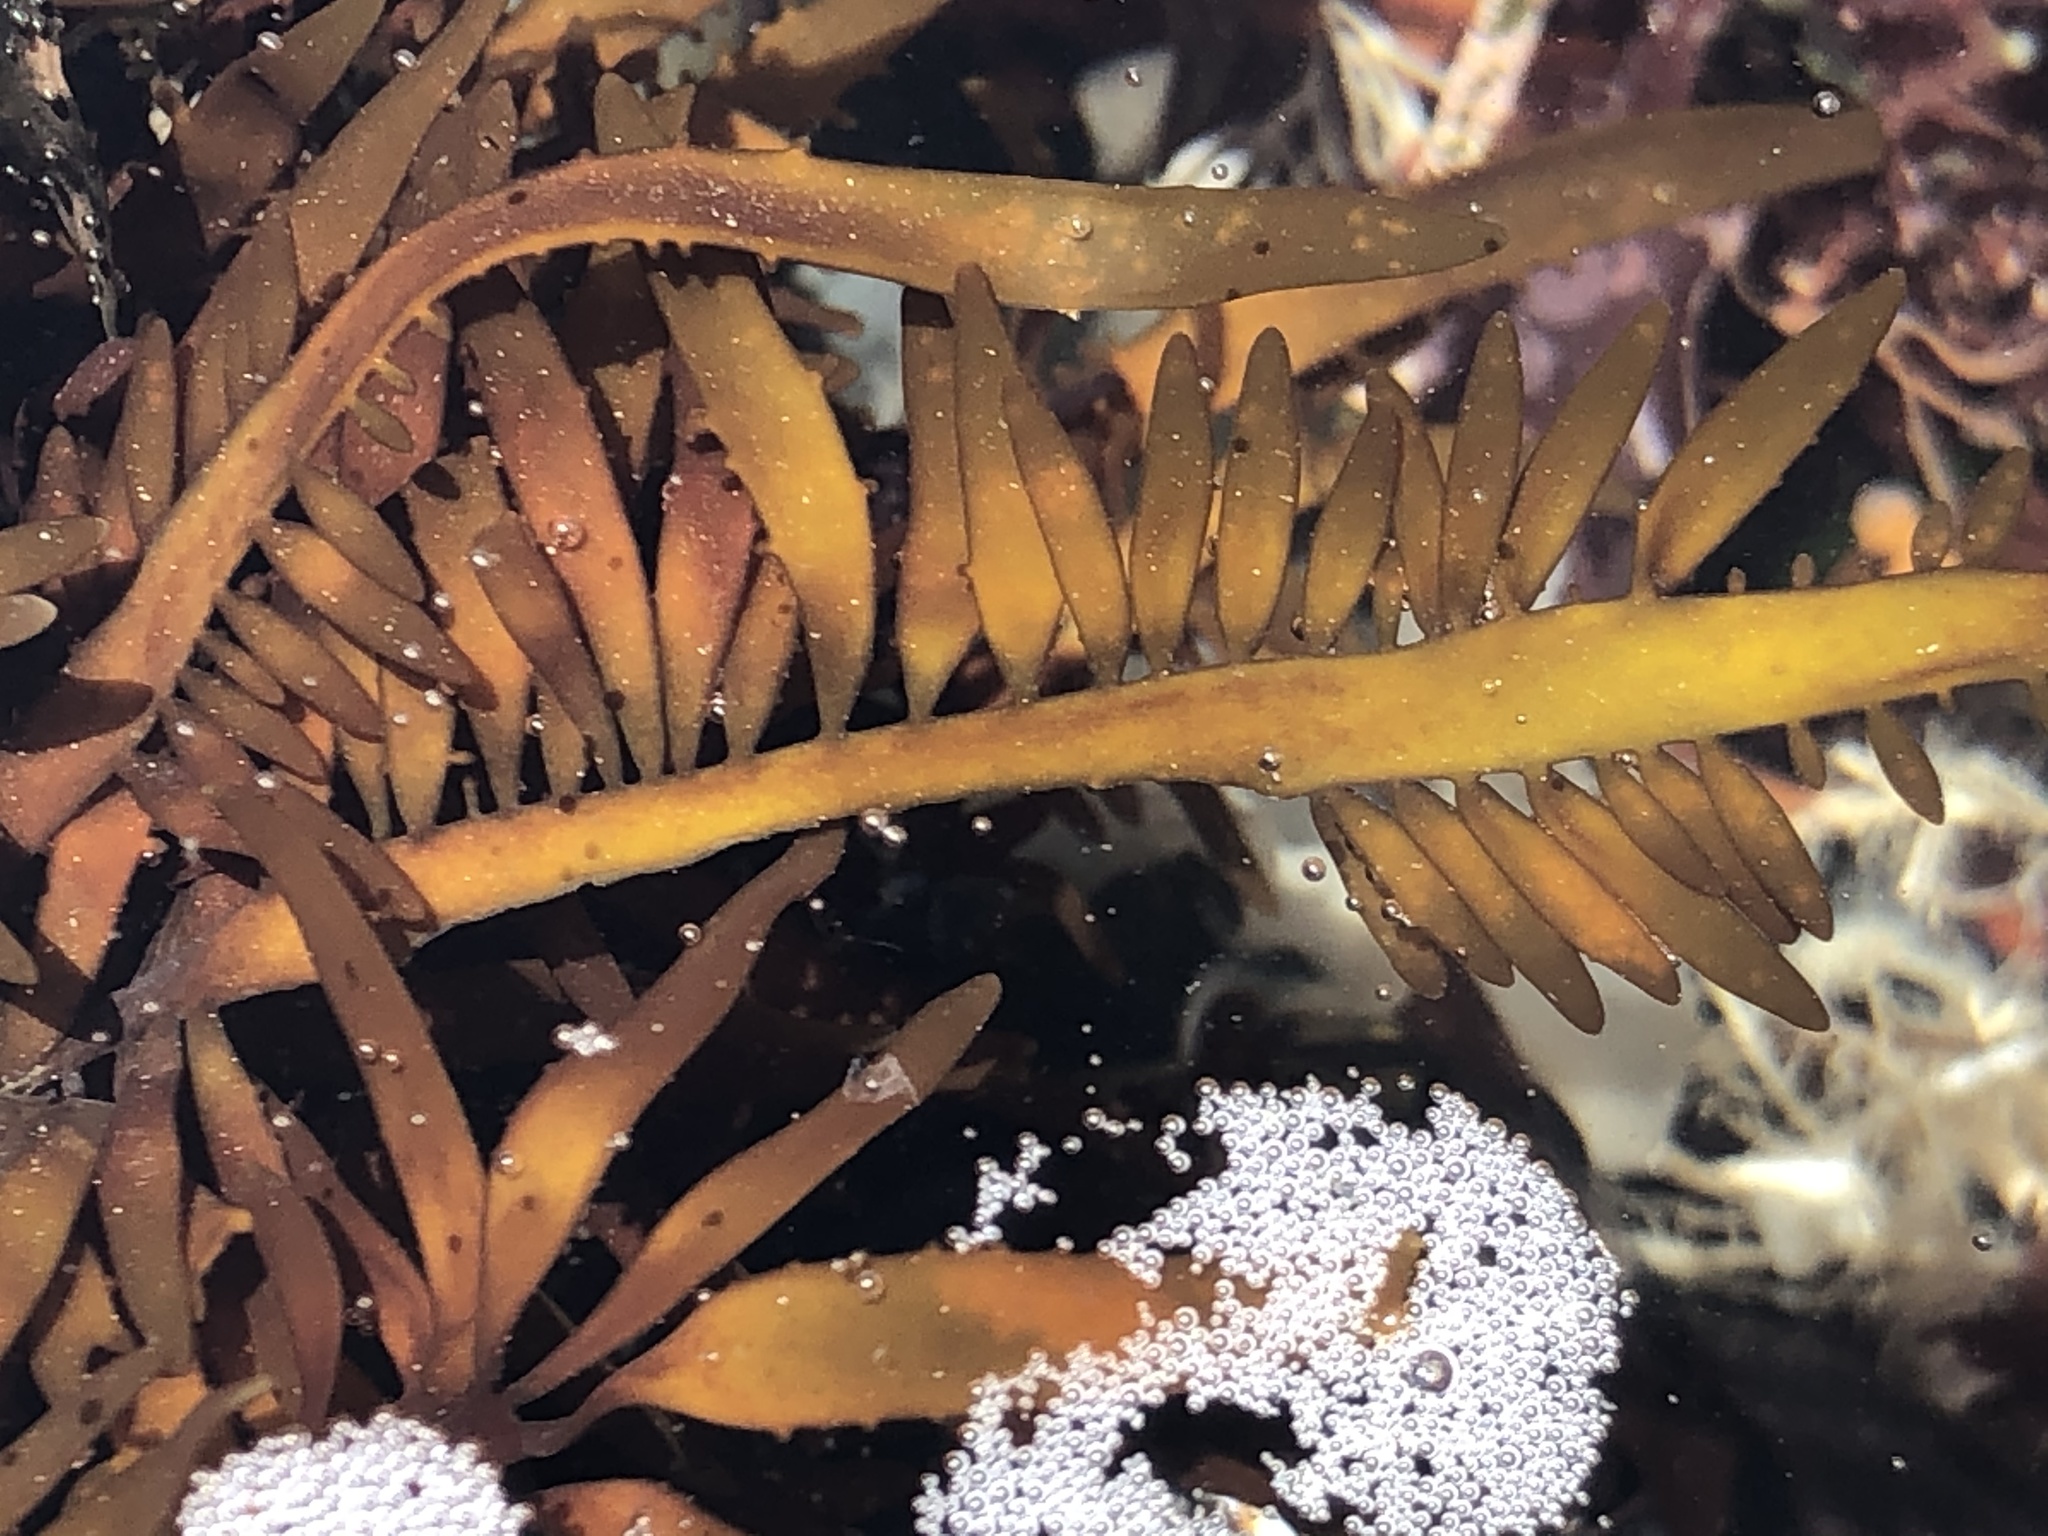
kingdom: Plantae
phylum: Rhodophyta
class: Florideophyceae
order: Halymeniales
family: Halymeniaceae
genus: Grateloupia
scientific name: Grateloupia Prionitis lanceolata
